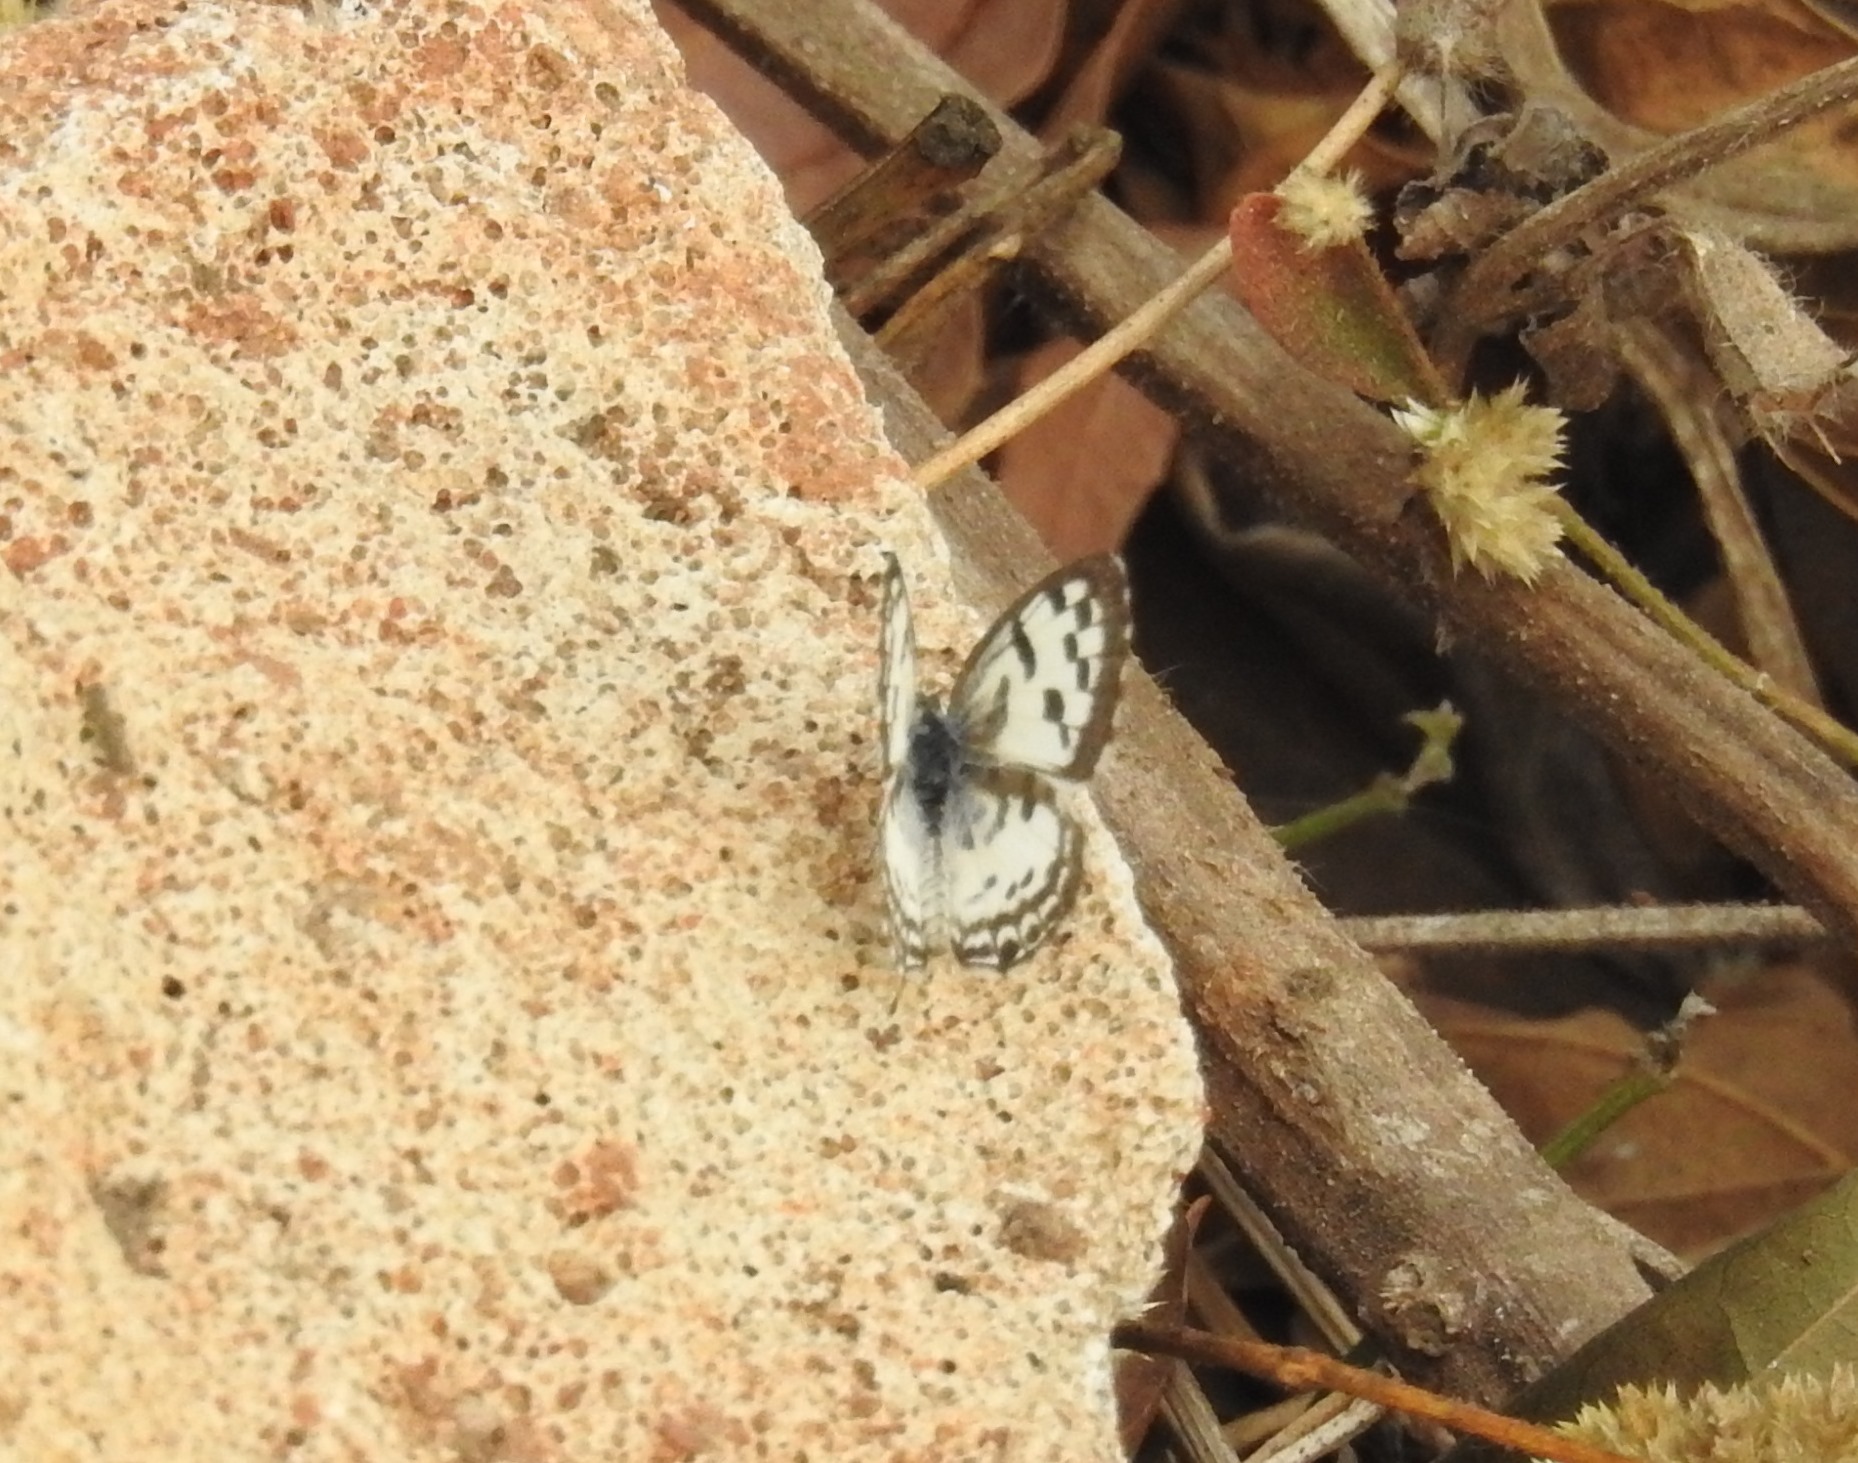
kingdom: Animalia
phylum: Arthropoda
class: Insecta
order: Lepidoptera
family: Lycaenidae
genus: Castalius
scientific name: Castalius rosimon
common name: Common pierrot
